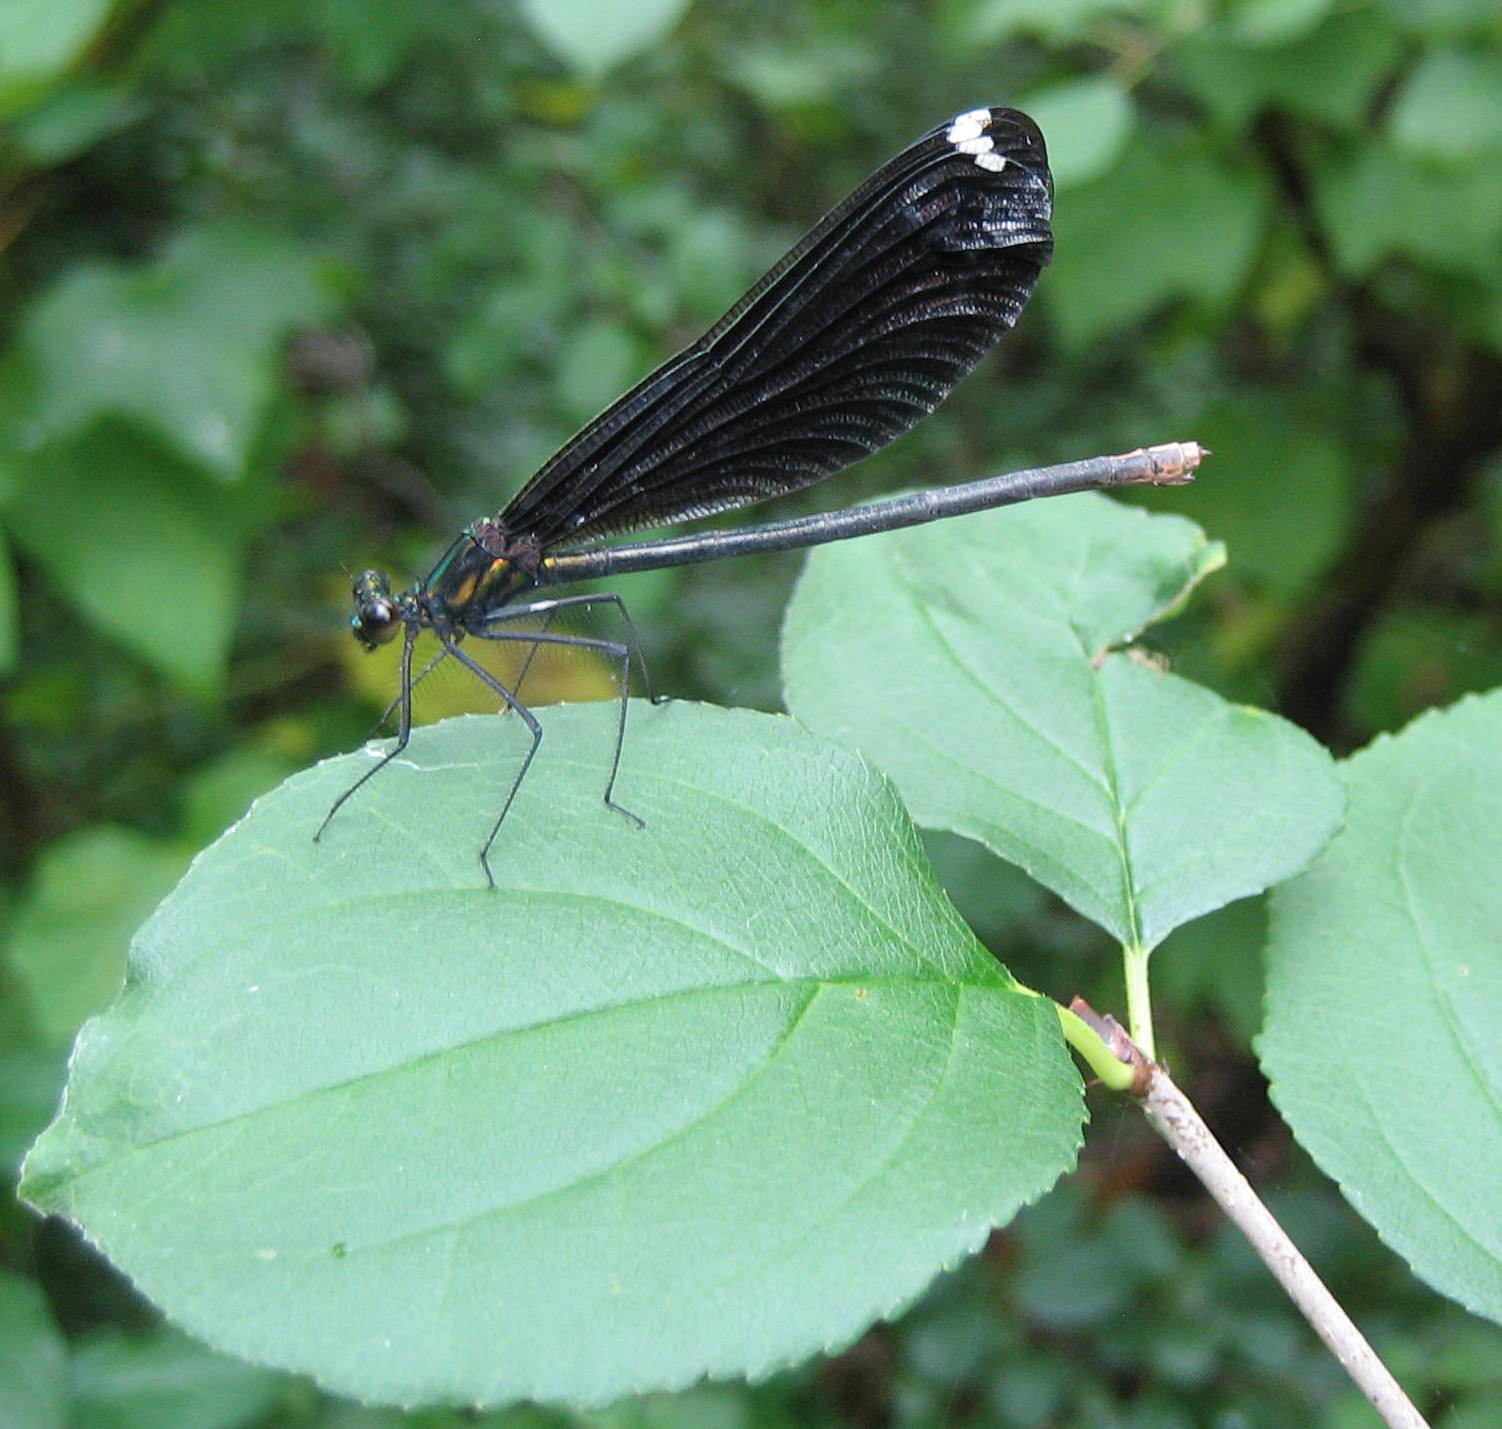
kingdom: Animalia
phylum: Arthropoda
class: Insecta
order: Odonata
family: Calopterygidae
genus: Calopteryx
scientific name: Calopteryx maculata
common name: Ebony jewelwing
